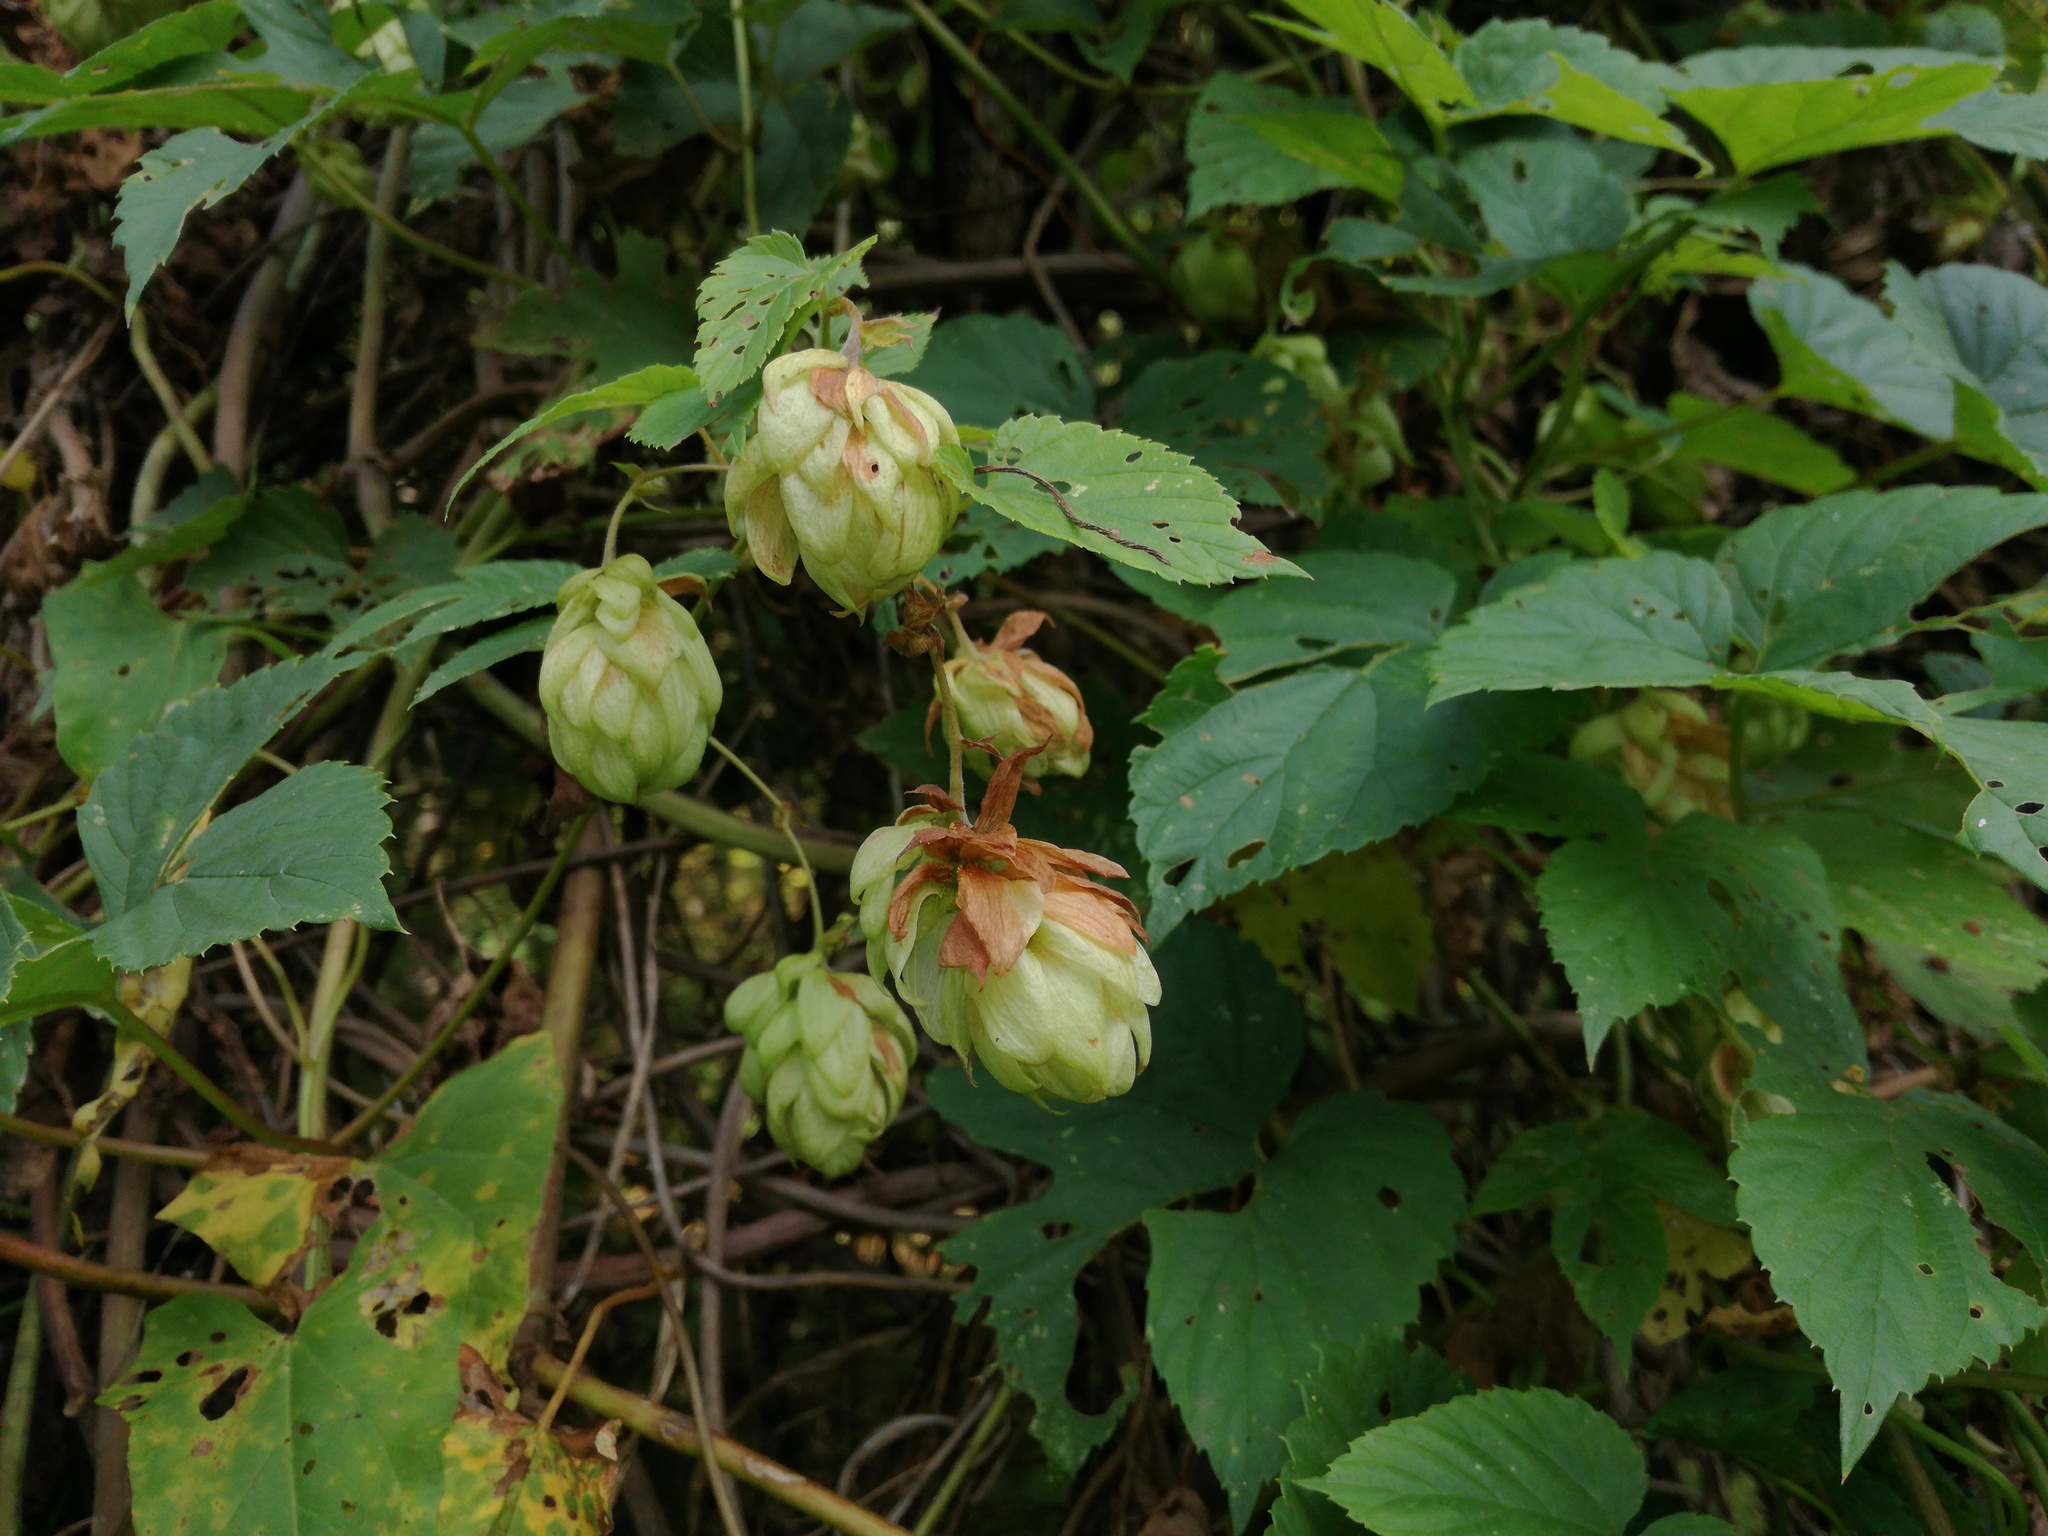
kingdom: Plantae
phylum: Tracheophyta
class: Magnoliopsida
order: Rosales
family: Cannabaceae
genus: Humulus
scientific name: Humulus lupulus
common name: Hop
